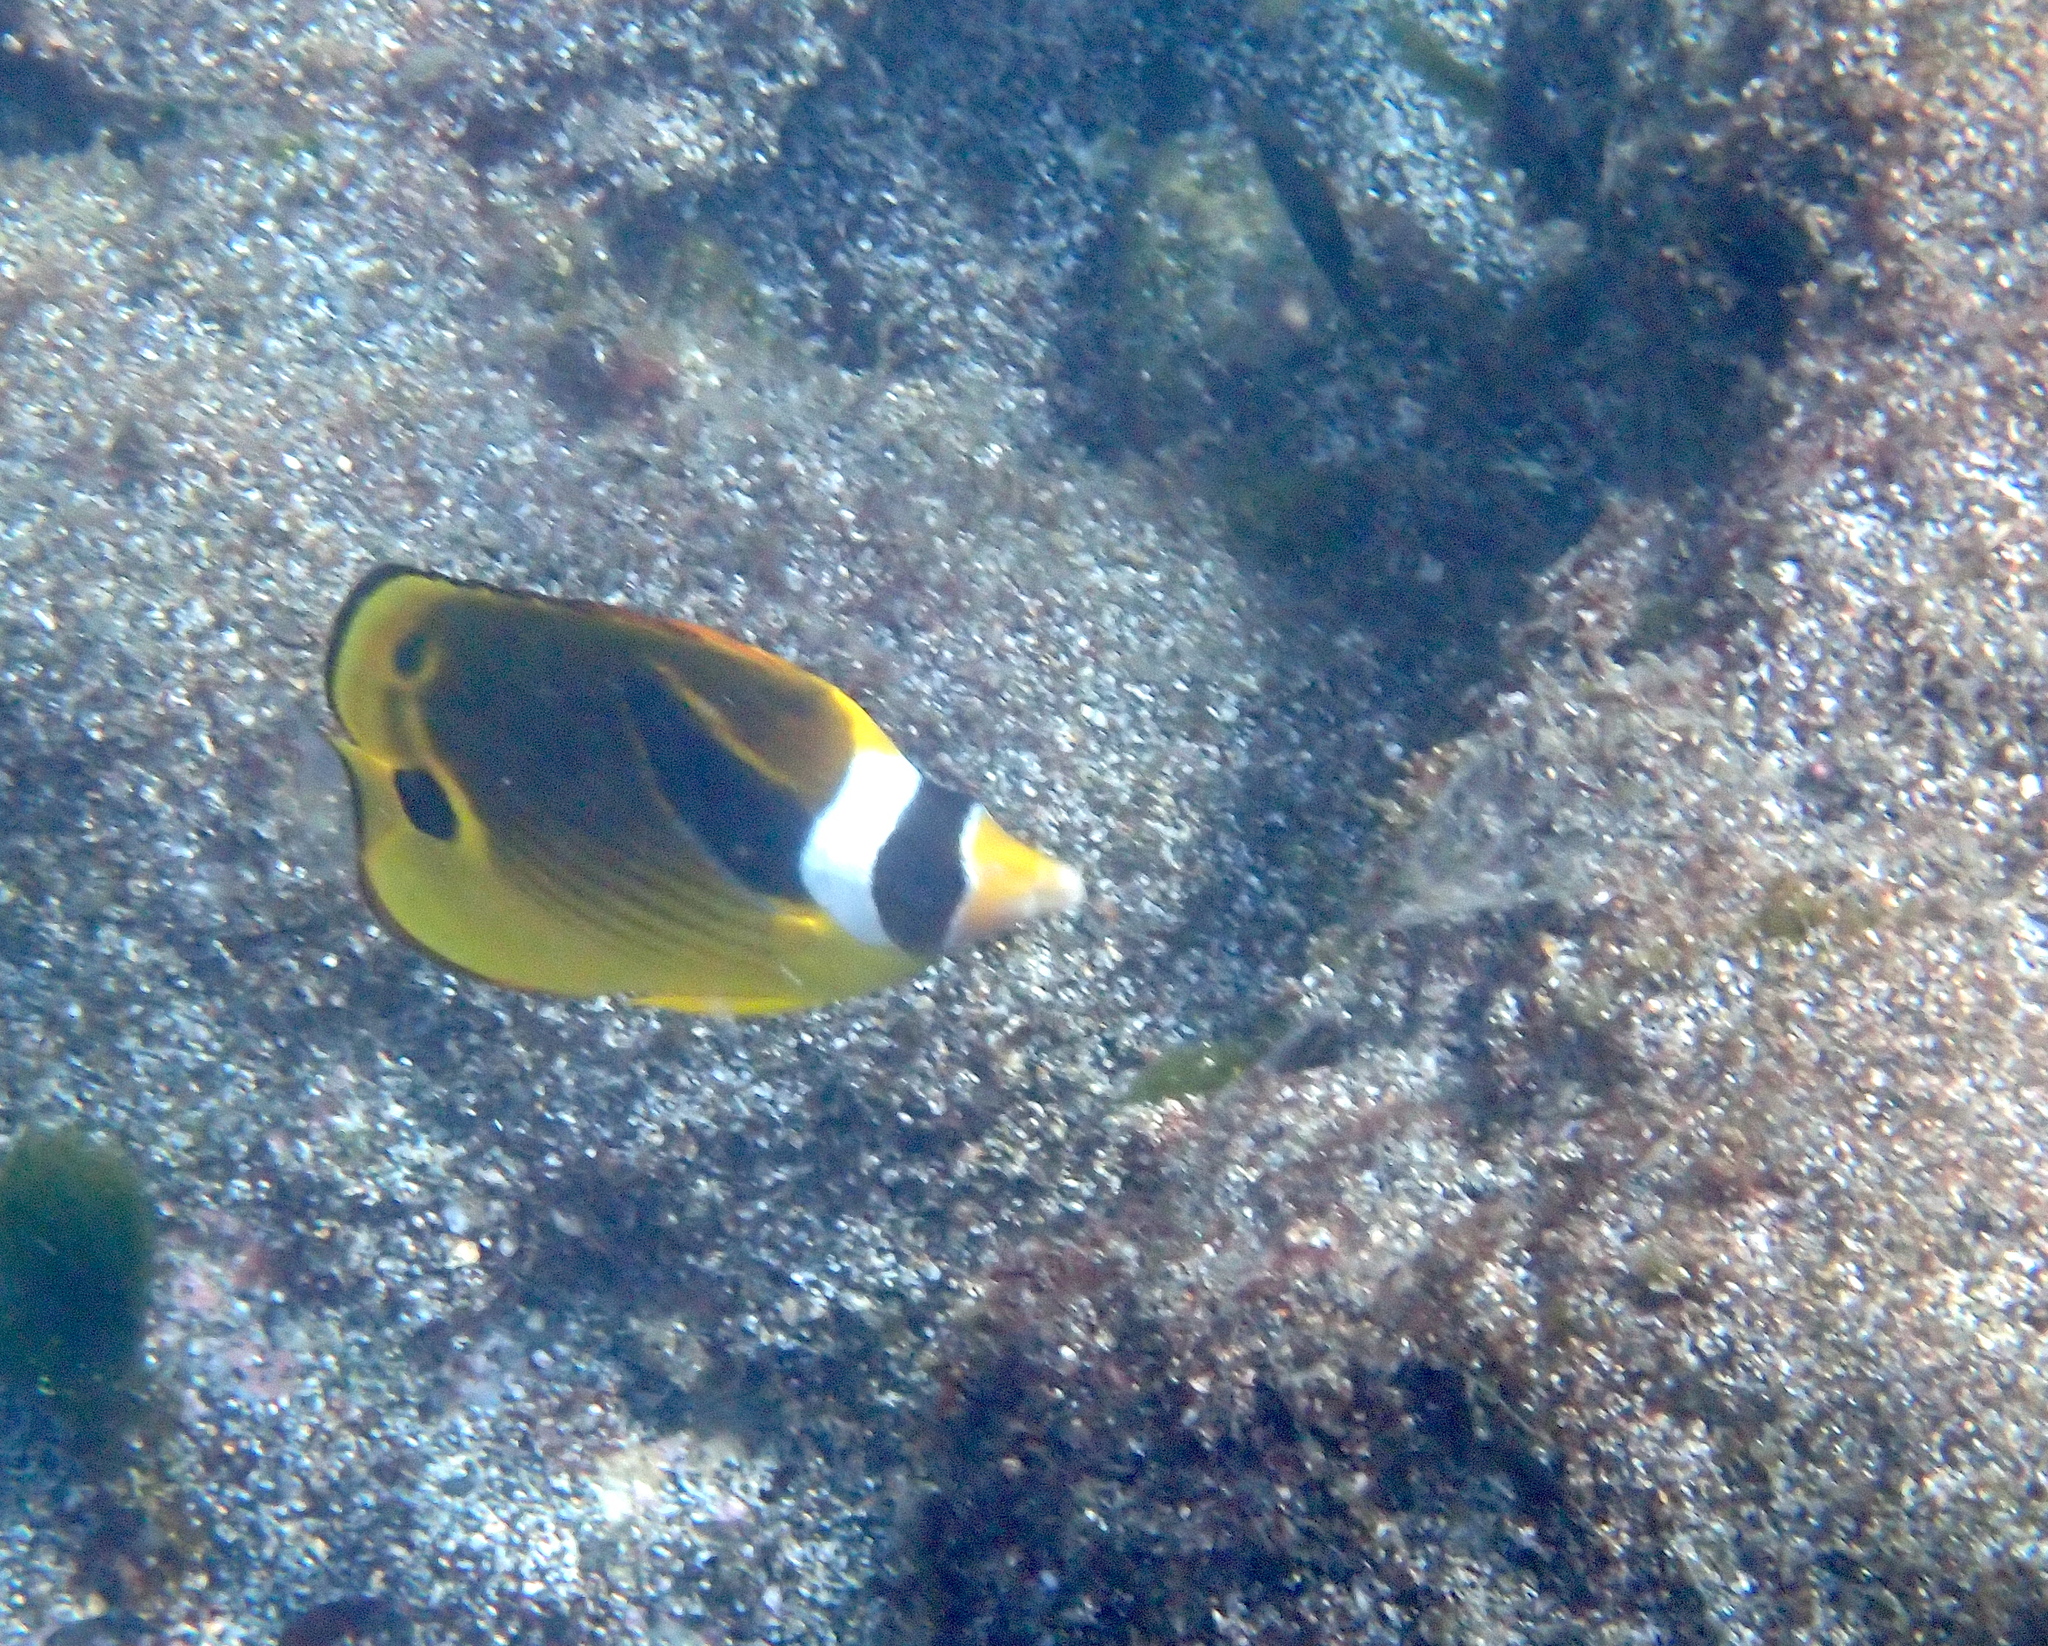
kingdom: Animalia
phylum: Chordata
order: Perciformes
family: Chaetodontidae
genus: Chaetodon
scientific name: Chaetodon lunula
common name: Raccoon butterflyfish
